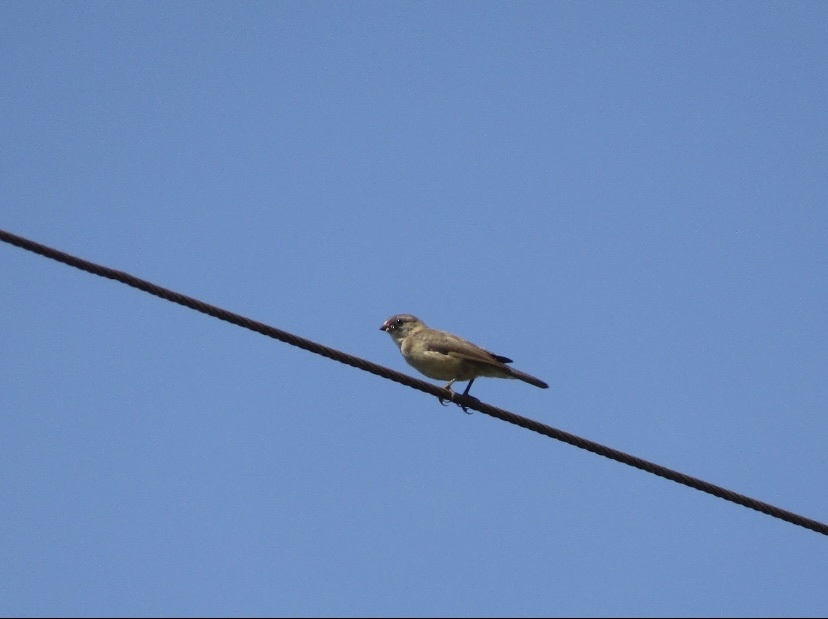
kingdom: Animalia
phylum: Chordata
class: Aves
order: Passeriformes
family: Viduidae
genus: Vidua
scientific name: Vidua macroura
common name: Pin-tailed whydah
